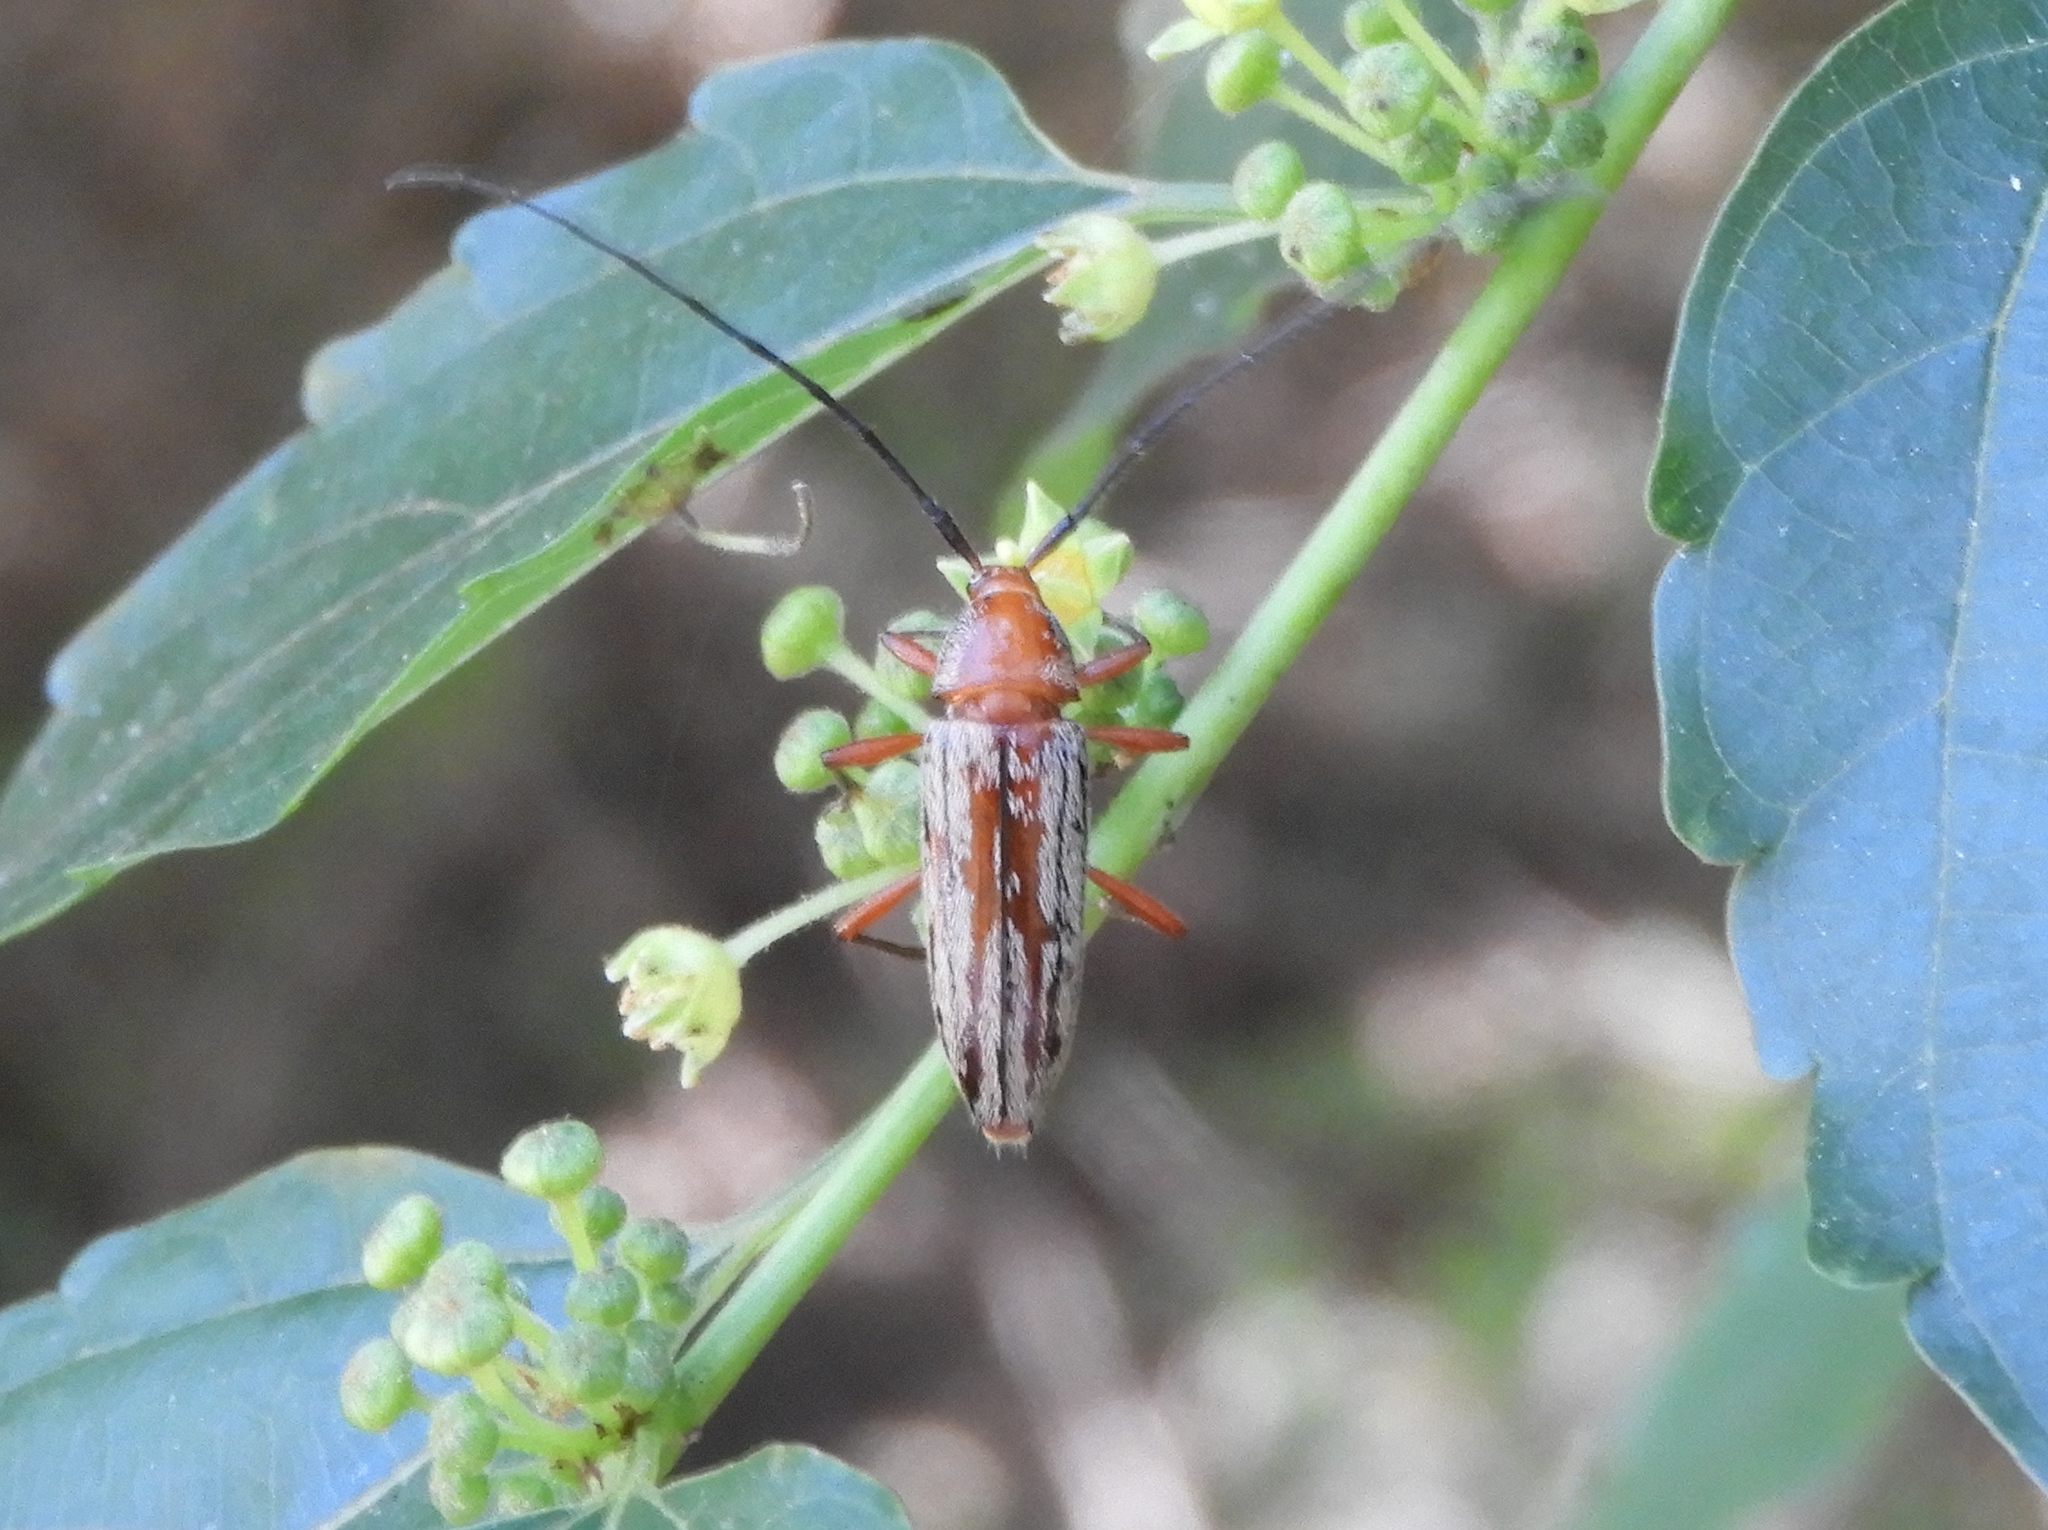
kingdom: Animalia
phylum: Arthropoda
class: Insecta
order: Coleoptera
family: Cerambycidae
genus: Stenosphenus
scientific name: Stenosphenus
